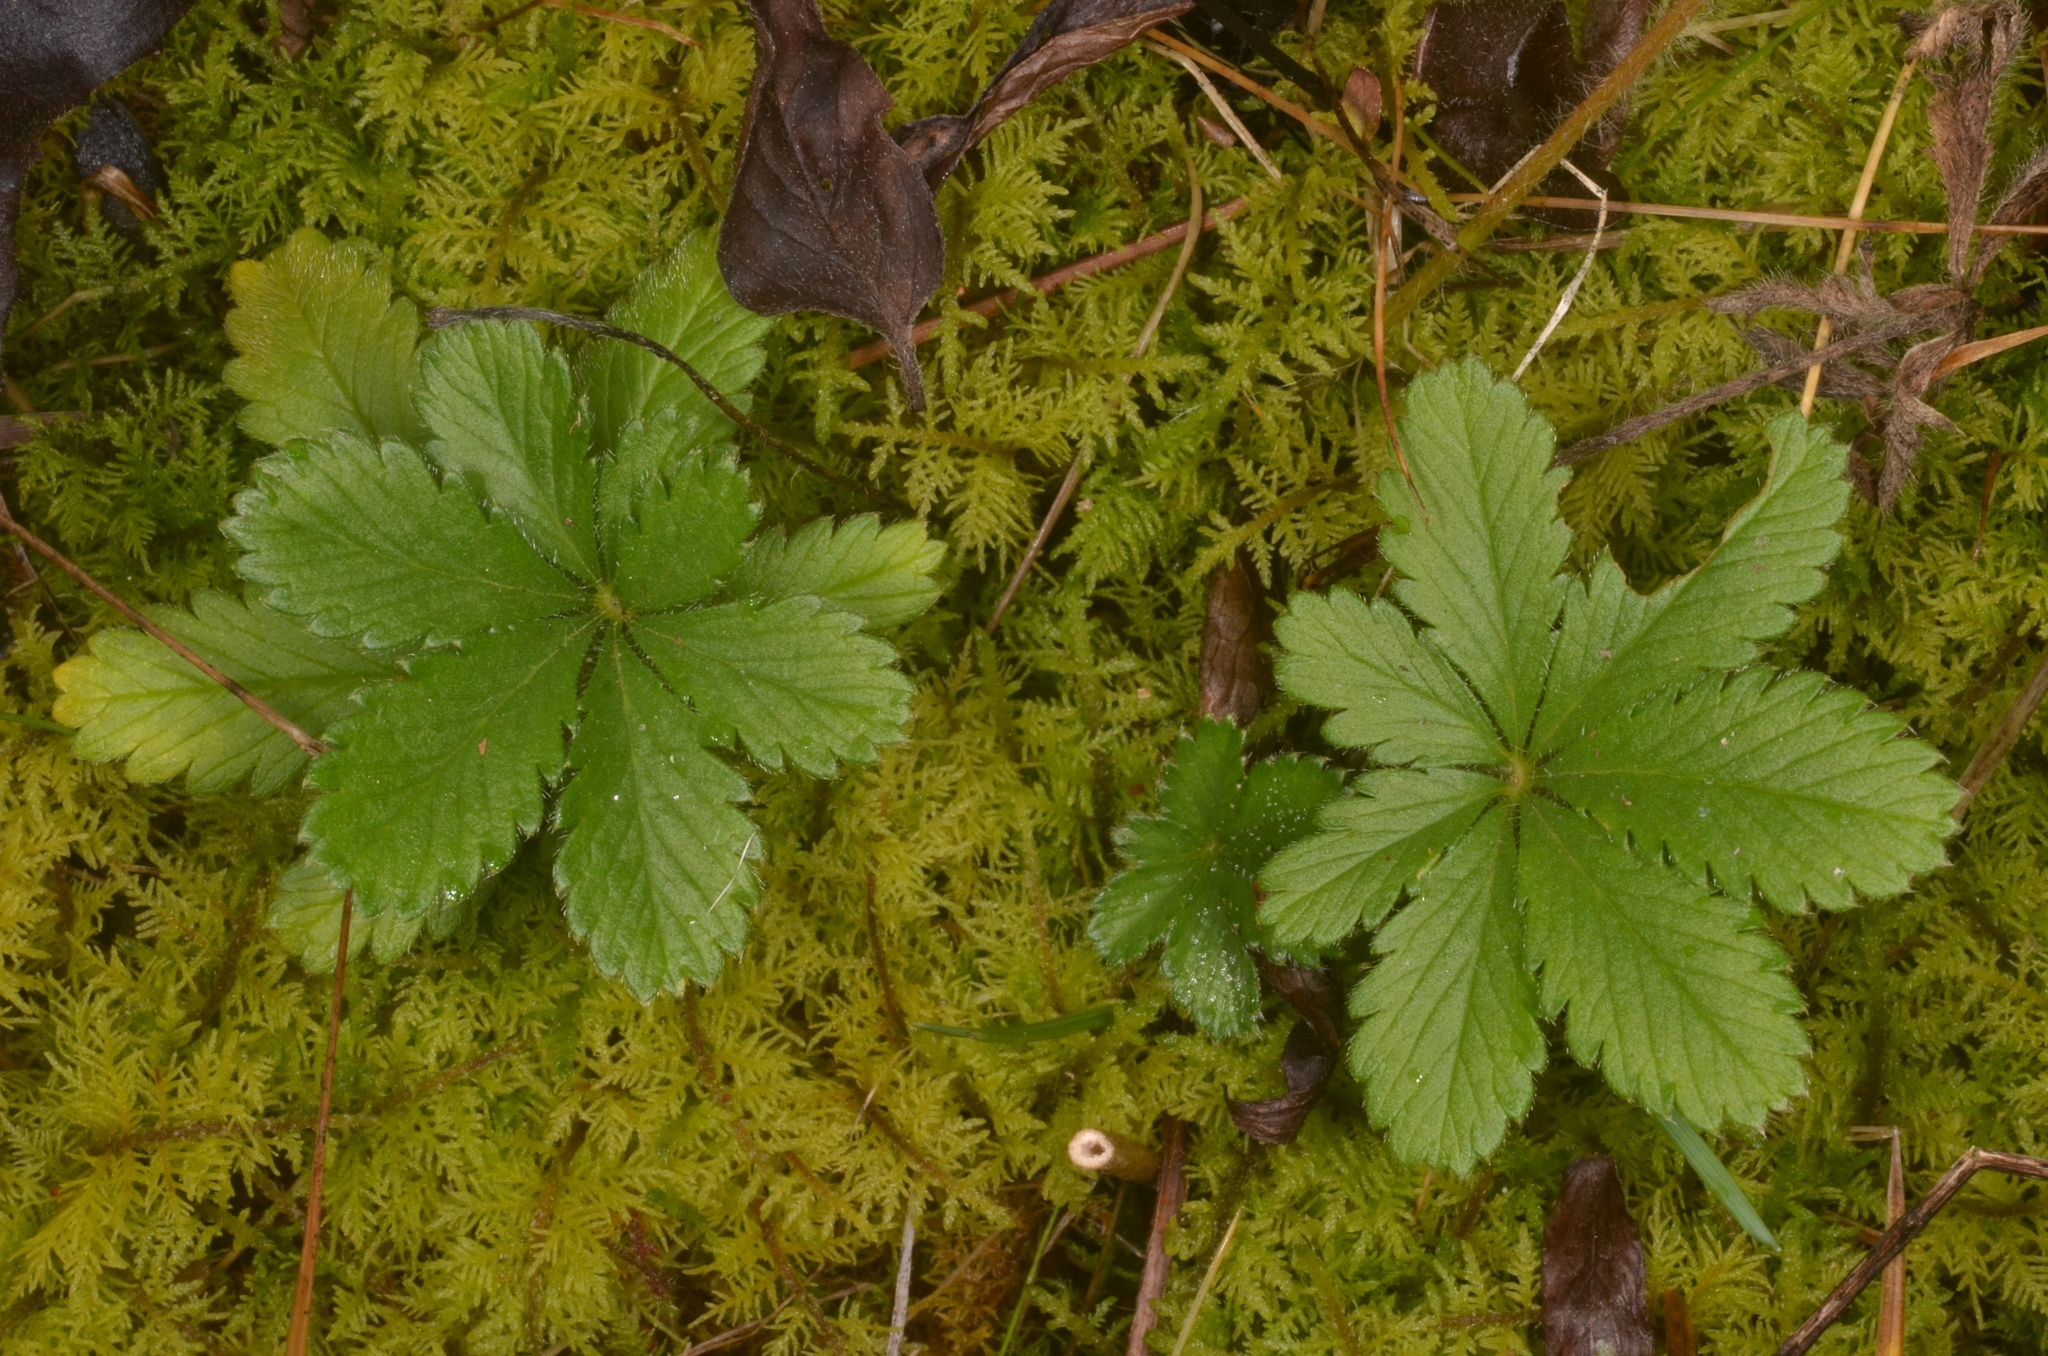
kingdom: Plantae
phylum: Tracheophyta
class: Magnoliopsida
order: Rosales
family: Rosaceae
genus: Potentilla
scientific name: Potentilla thuringiaca
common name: European cinquefoil
